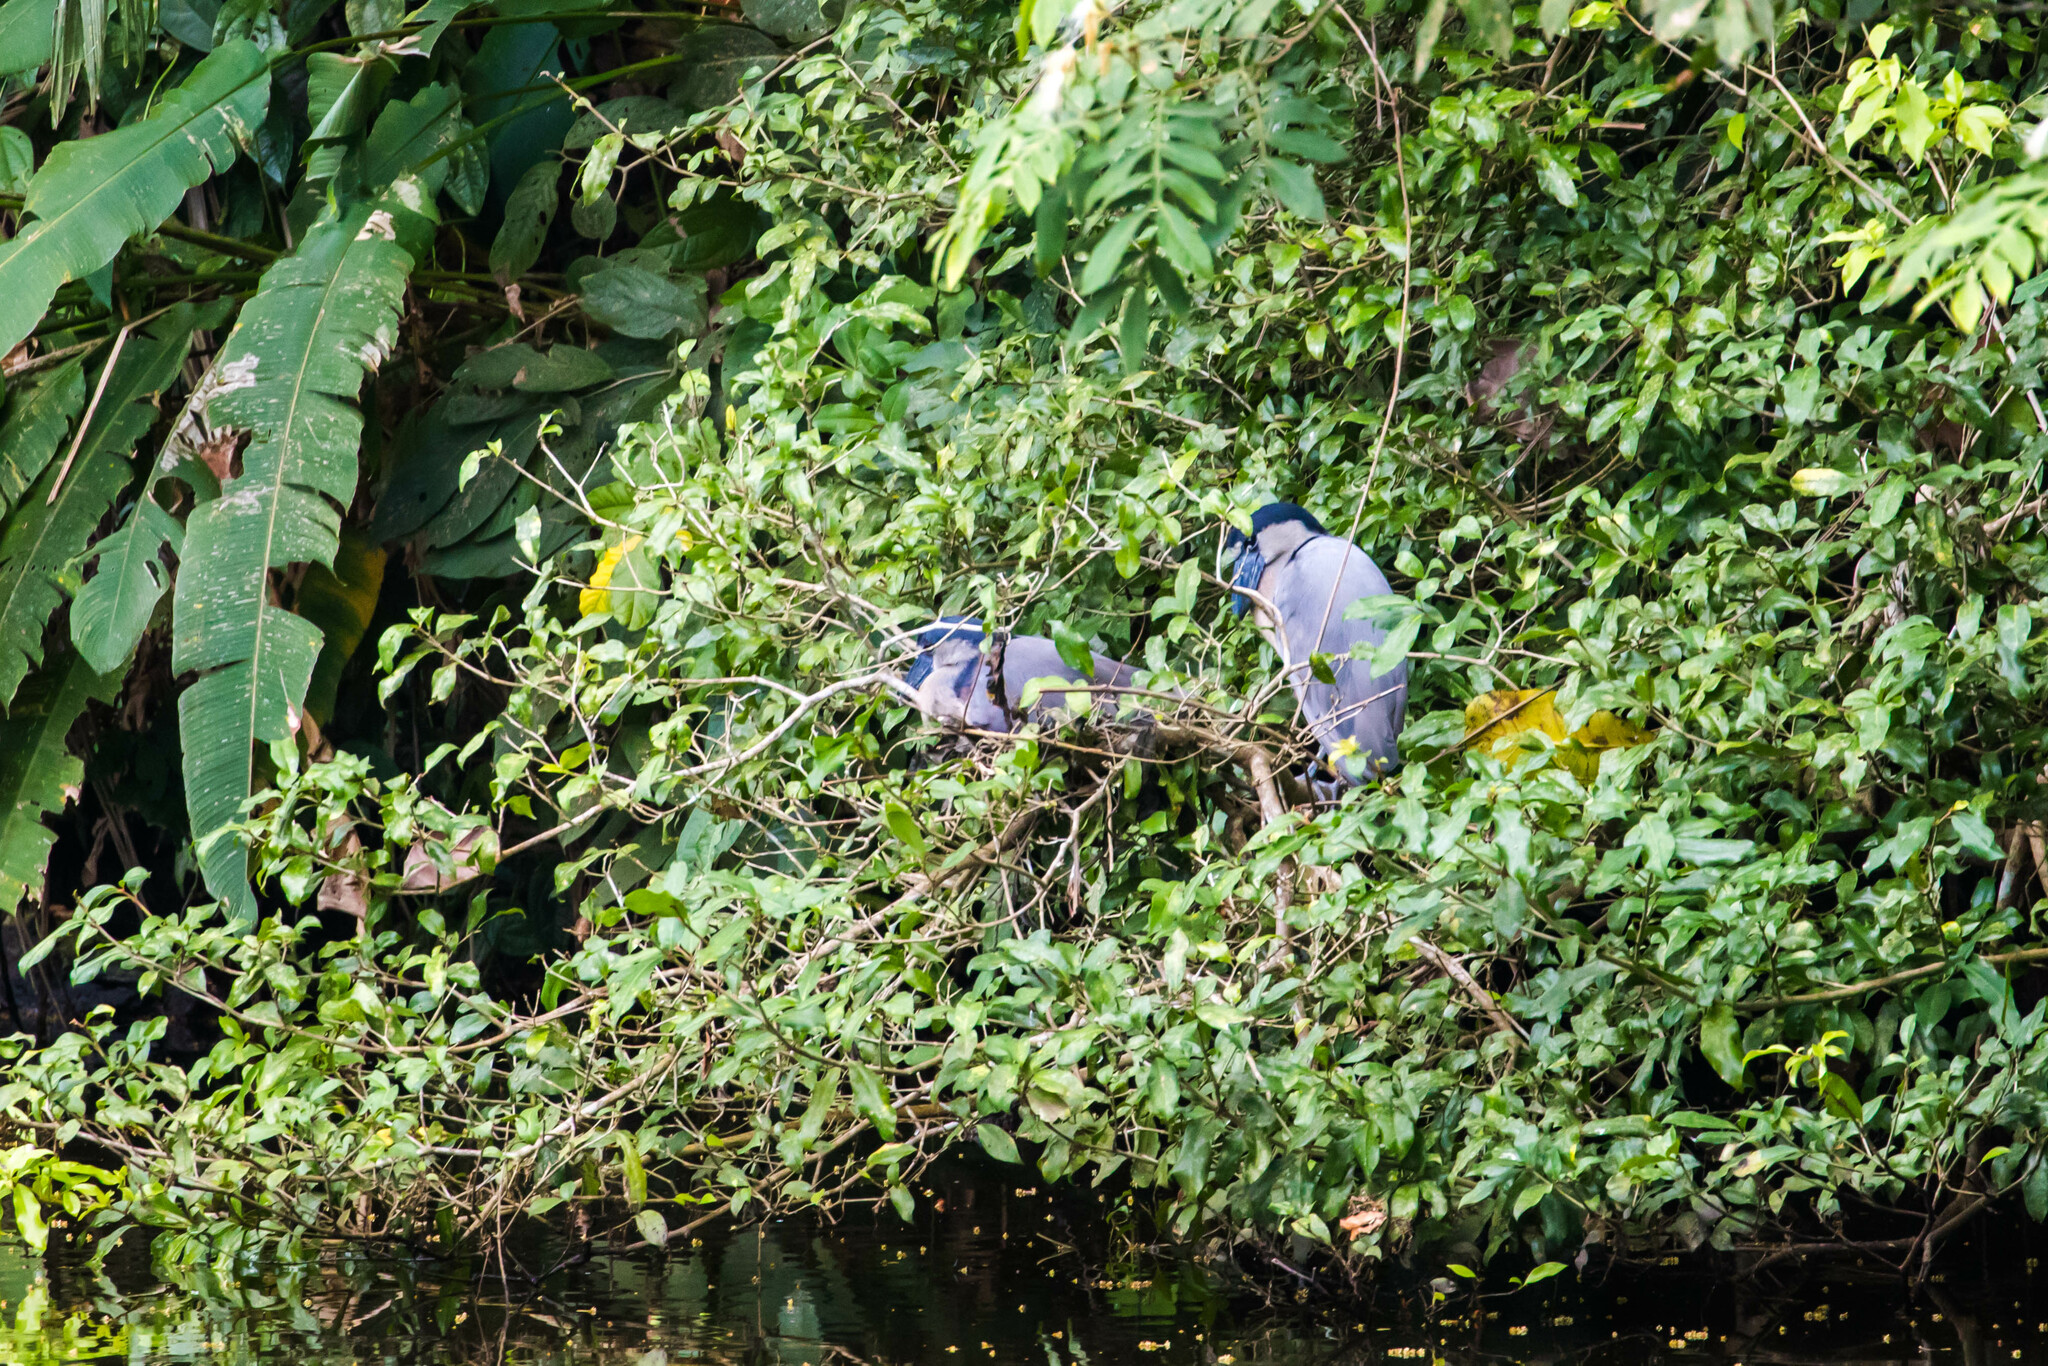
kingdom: Animalia
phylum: Chordata
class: Aves
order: Pelecaniformes
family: Ardeidae
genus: Cochlearius
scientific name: Cochlearius cochlearius
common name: Boat-billed heron
